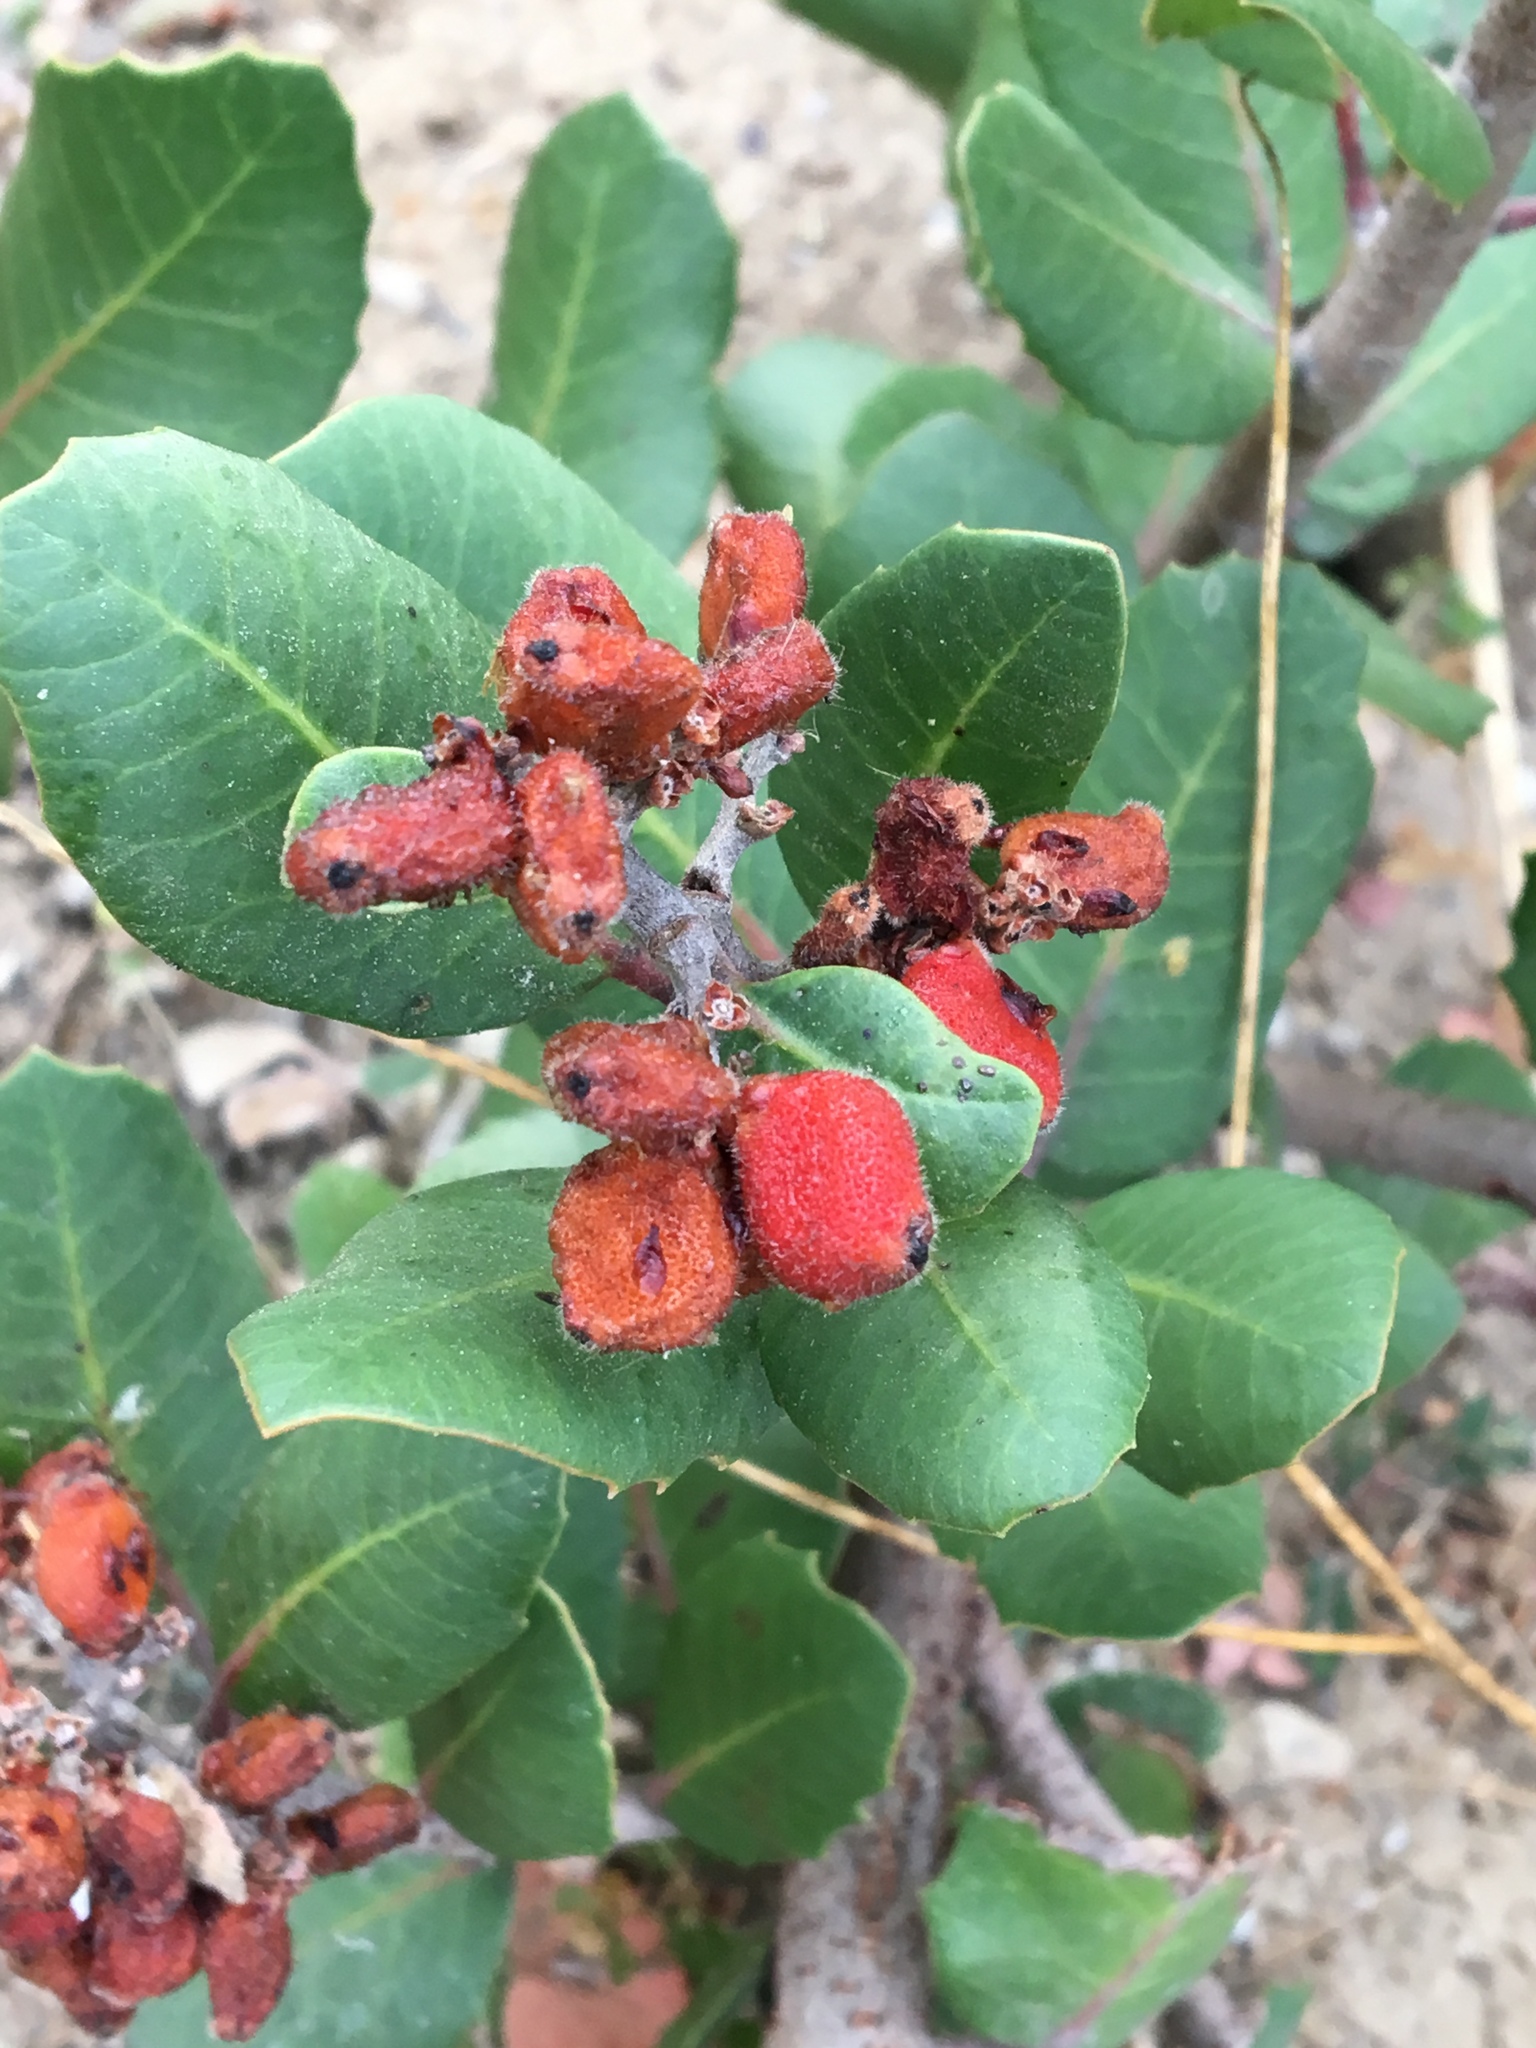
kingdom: Plantae
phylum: Tracheophyta
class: Magnoliopsida
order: Sapindales
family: Anacardiaceae
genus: Rhus
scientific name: Rhus integrifolia
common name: Lemonade sumac
